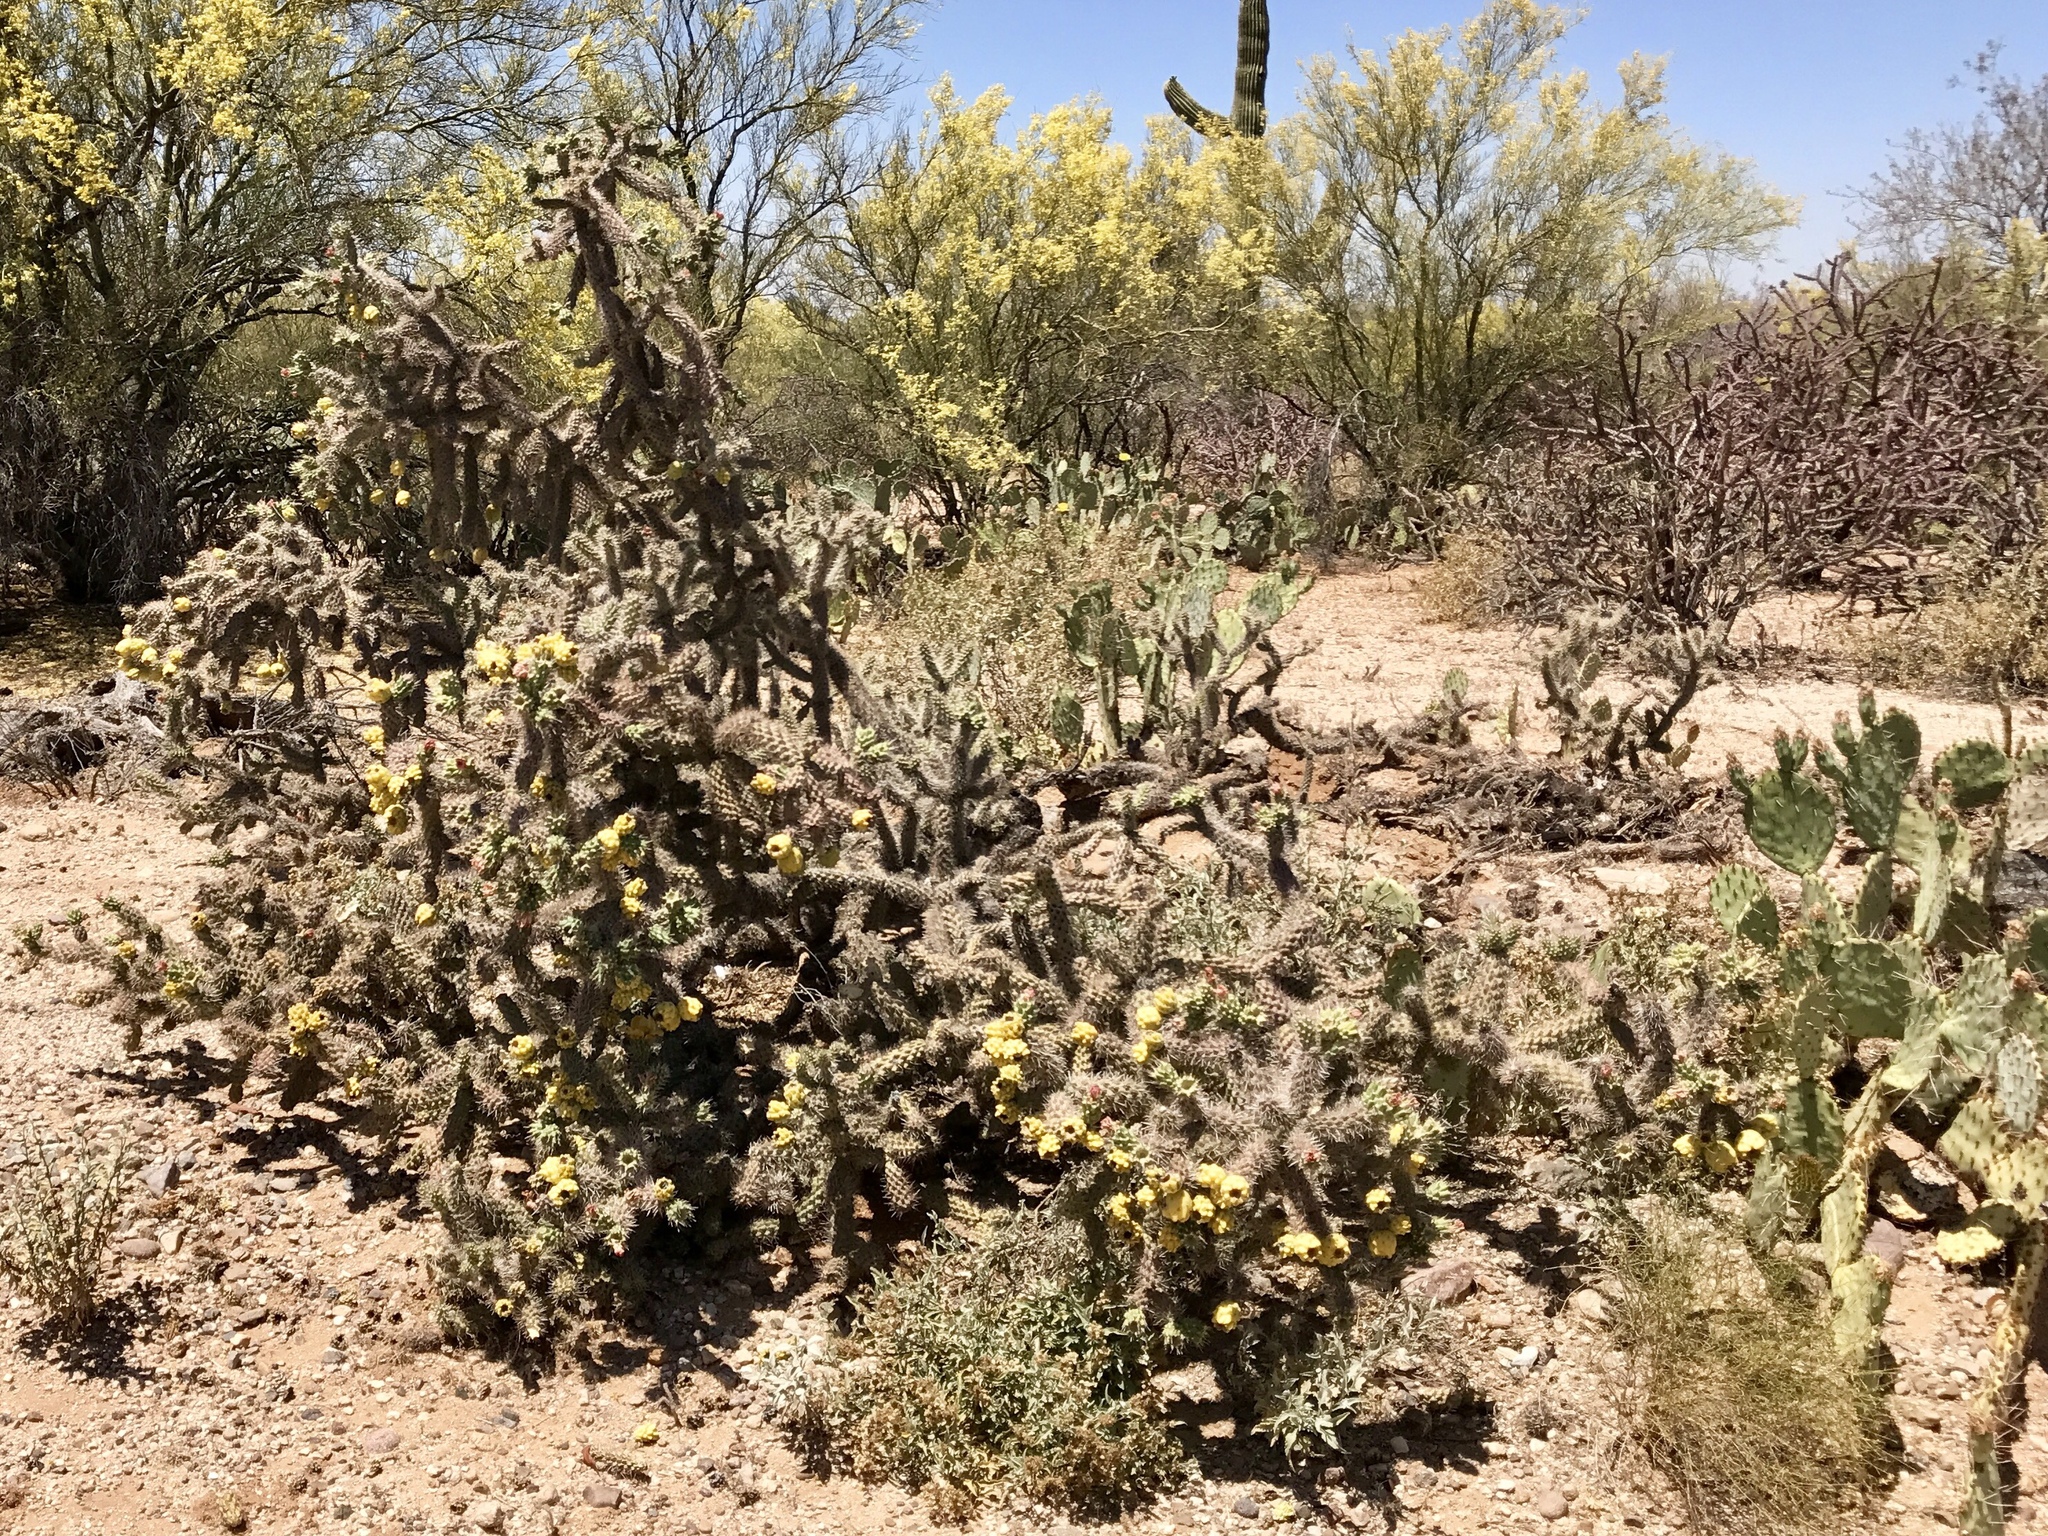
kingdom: Plantae
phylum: Tracheophyta
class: Magnoliopsida
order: Caryophyllales
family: Cactaceae
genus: Cylindropuntia
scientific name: Cylindropuntia imbricata
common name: Candelabrum cactus
